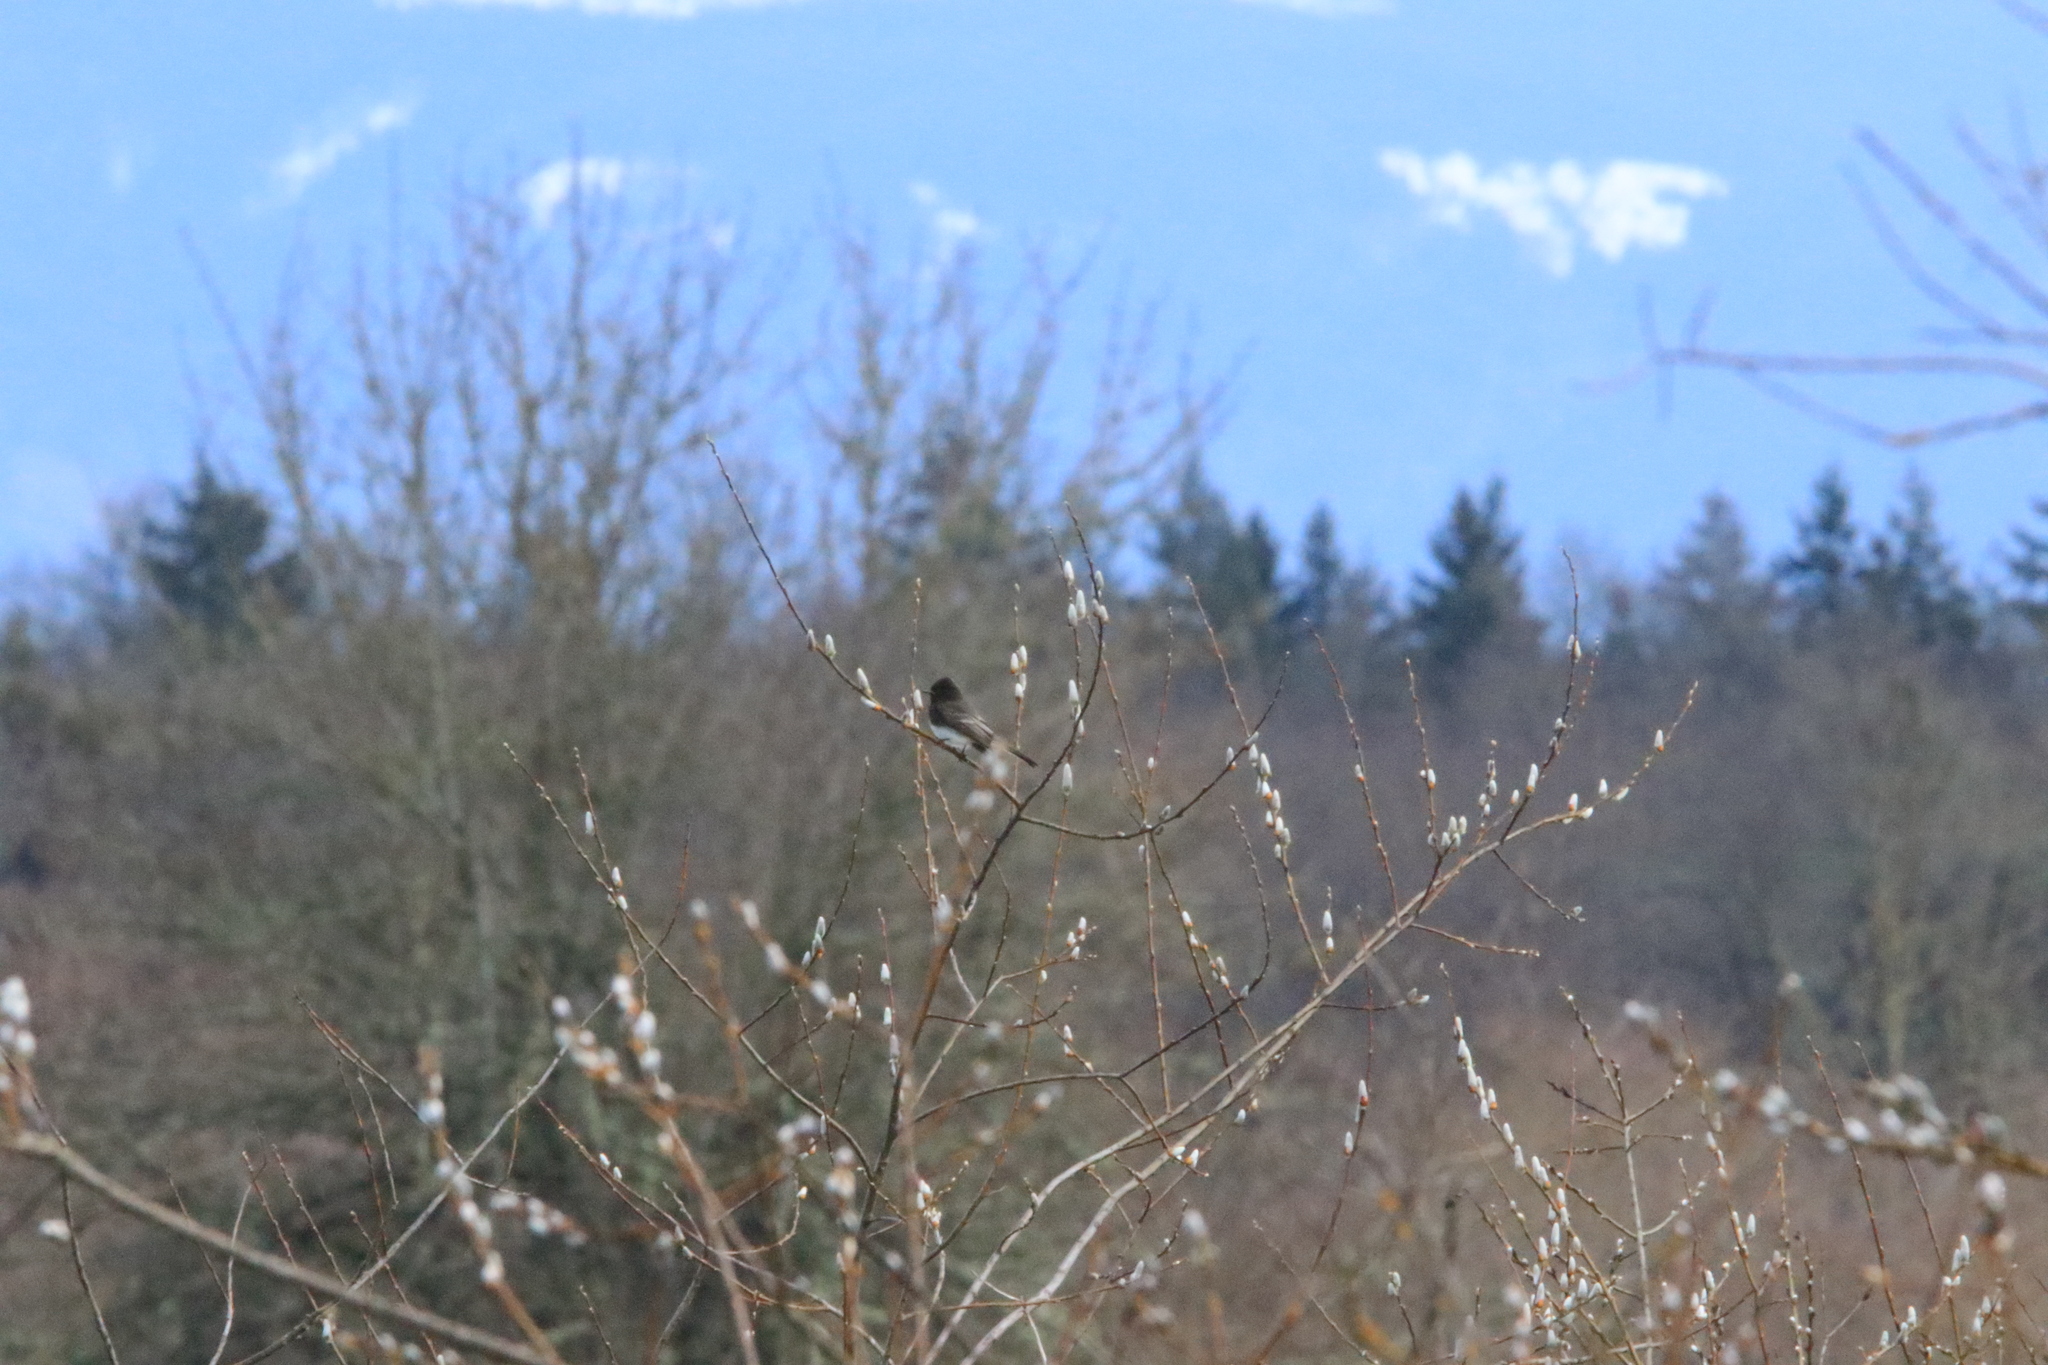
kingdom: Animalia
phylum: Chordata
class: Aves
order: Passeriformes
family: Tyrannidae
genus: Sayornis
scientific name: Sayornis nigricans
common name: Black phoebe
